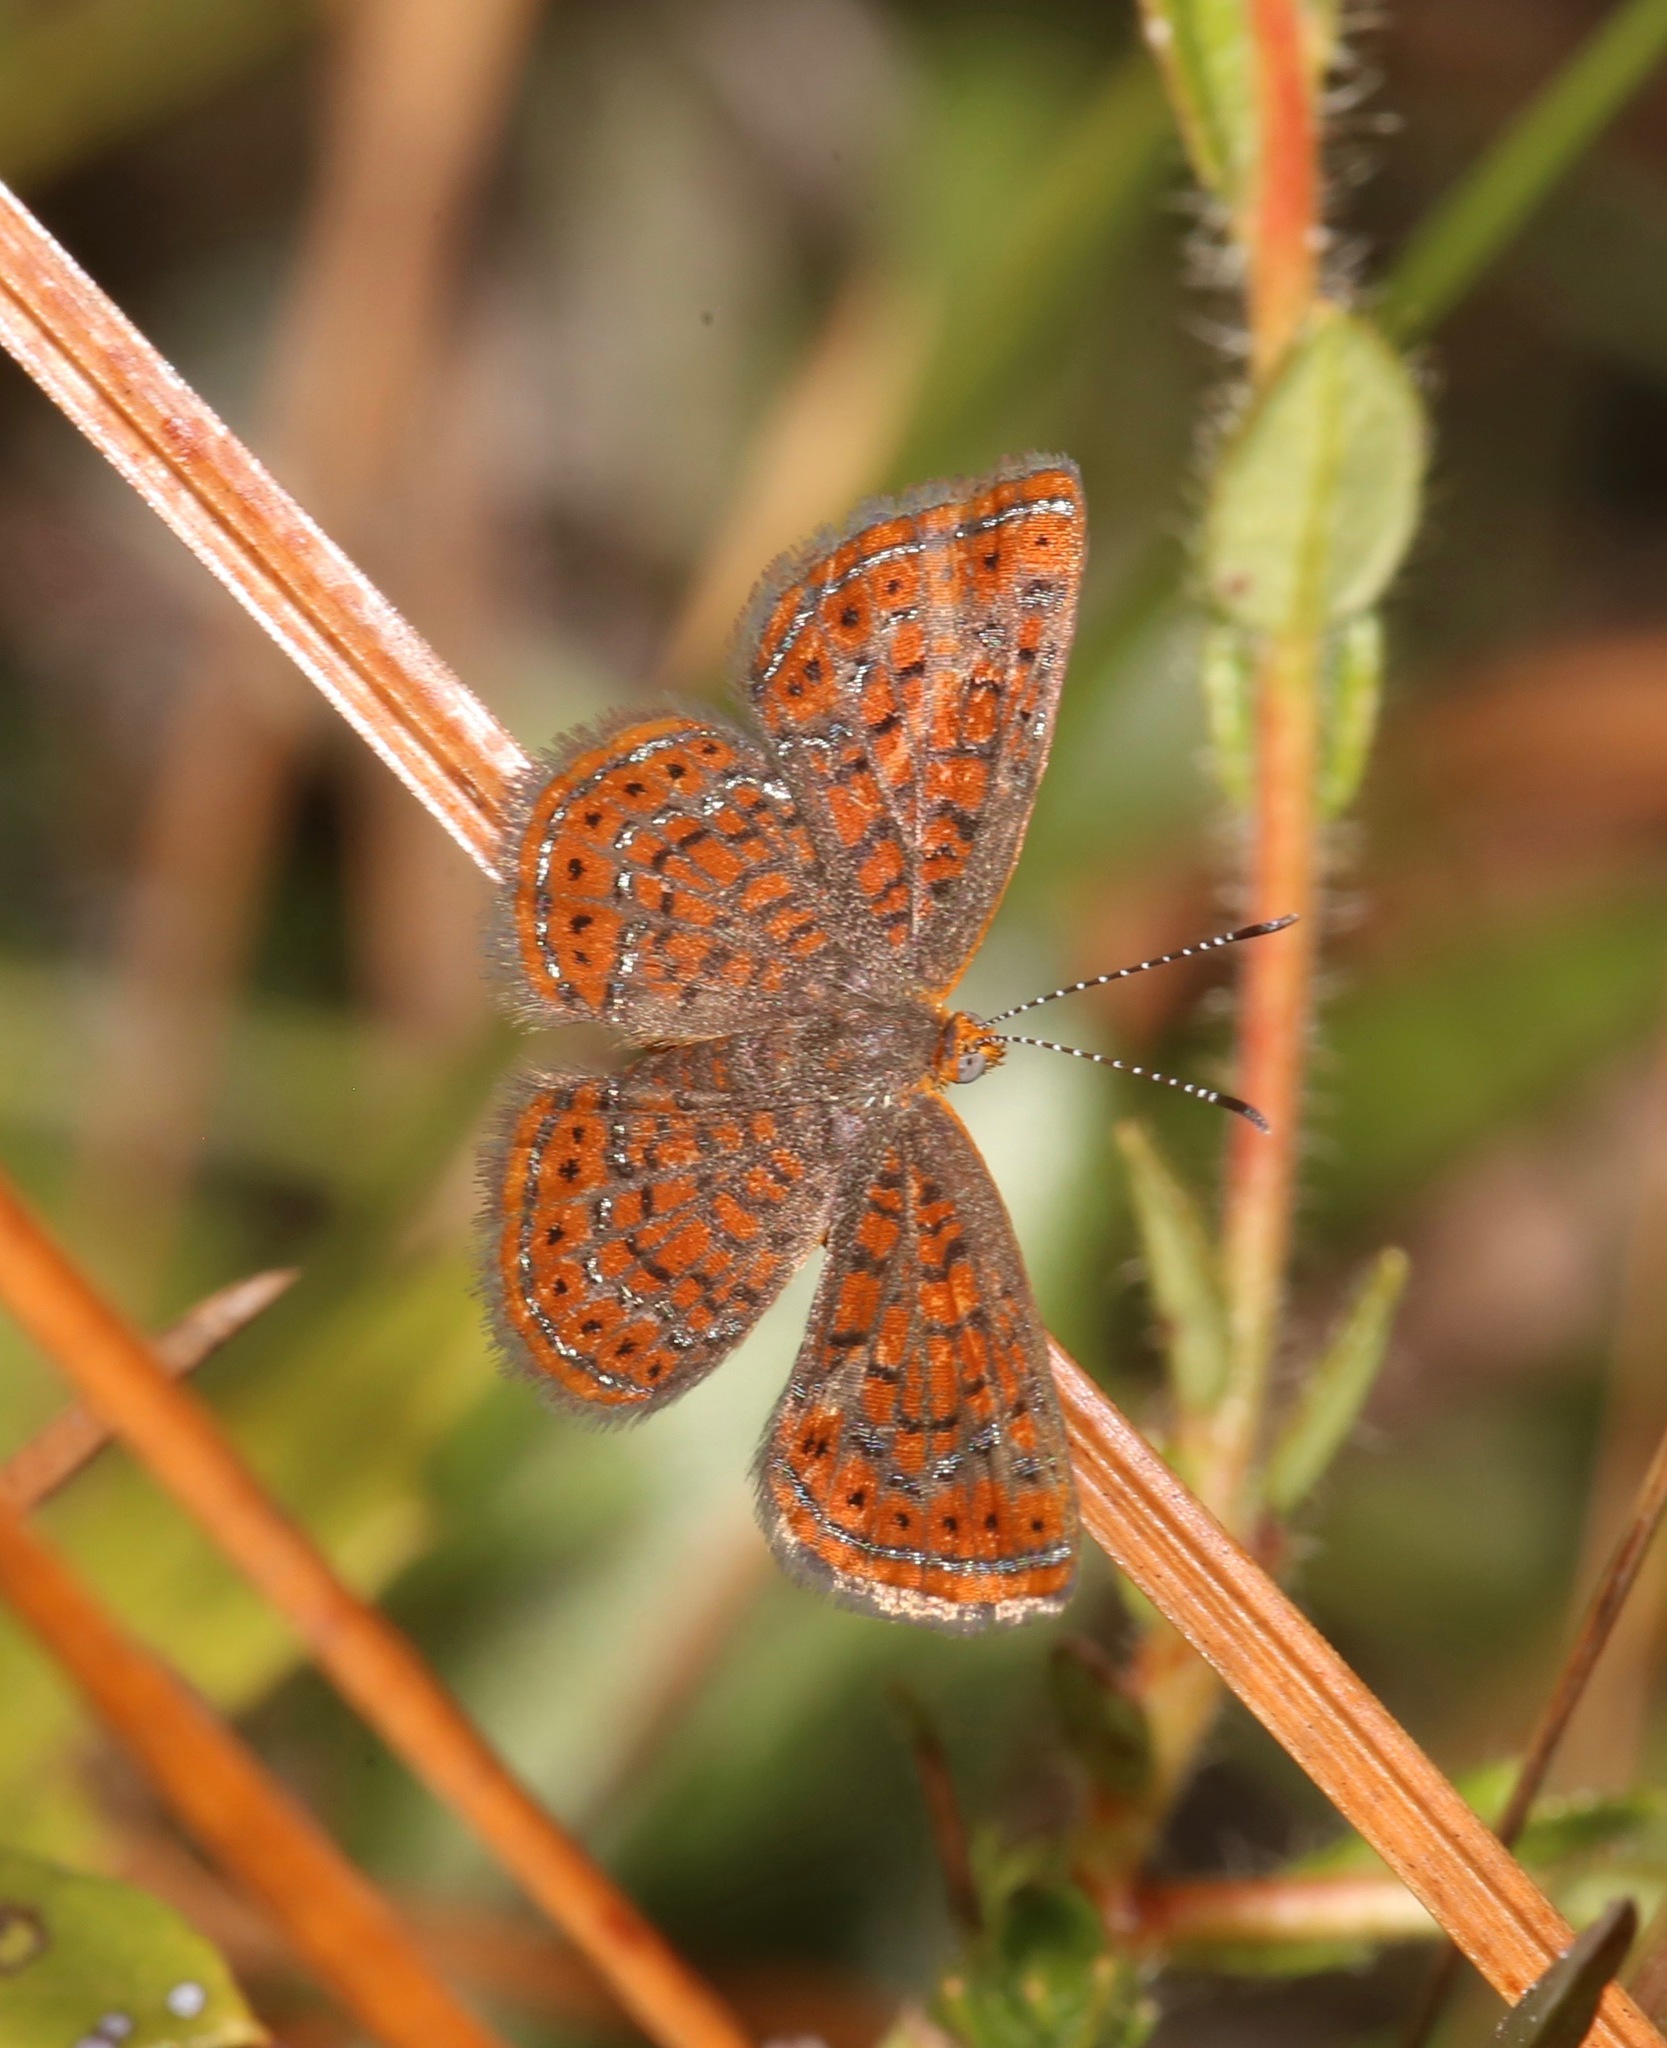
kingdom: Animalia
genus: Calephelis
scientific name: Calephelis virginiensis
